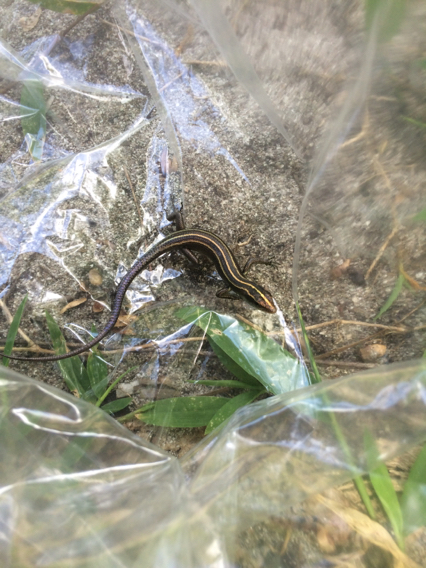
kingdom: Animalia
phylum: Chordata
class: Squamata
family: Scincidae
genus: Emoia
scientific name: Emoia caeruleocauda
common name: Pacific bluetail skink
